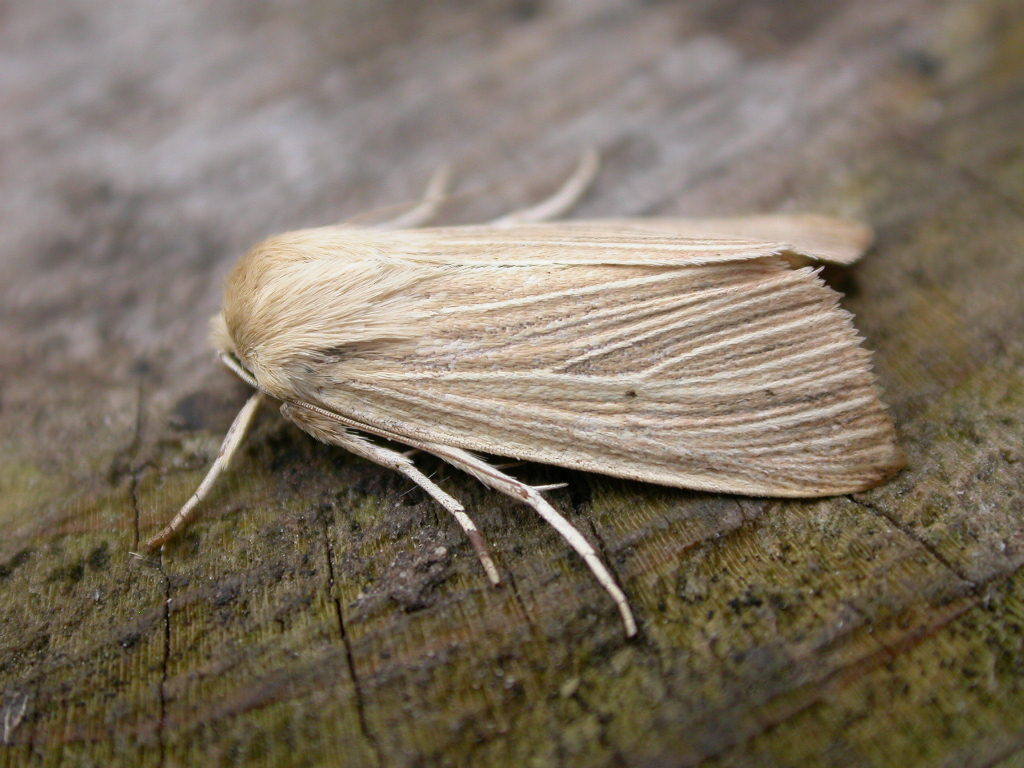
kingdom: Animalia
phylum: Arthropoda
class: Insecta
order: Lepidoptera
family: Noctuidae
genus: Mythimna
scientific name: Mythimna impura
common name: Smoky wainscot
